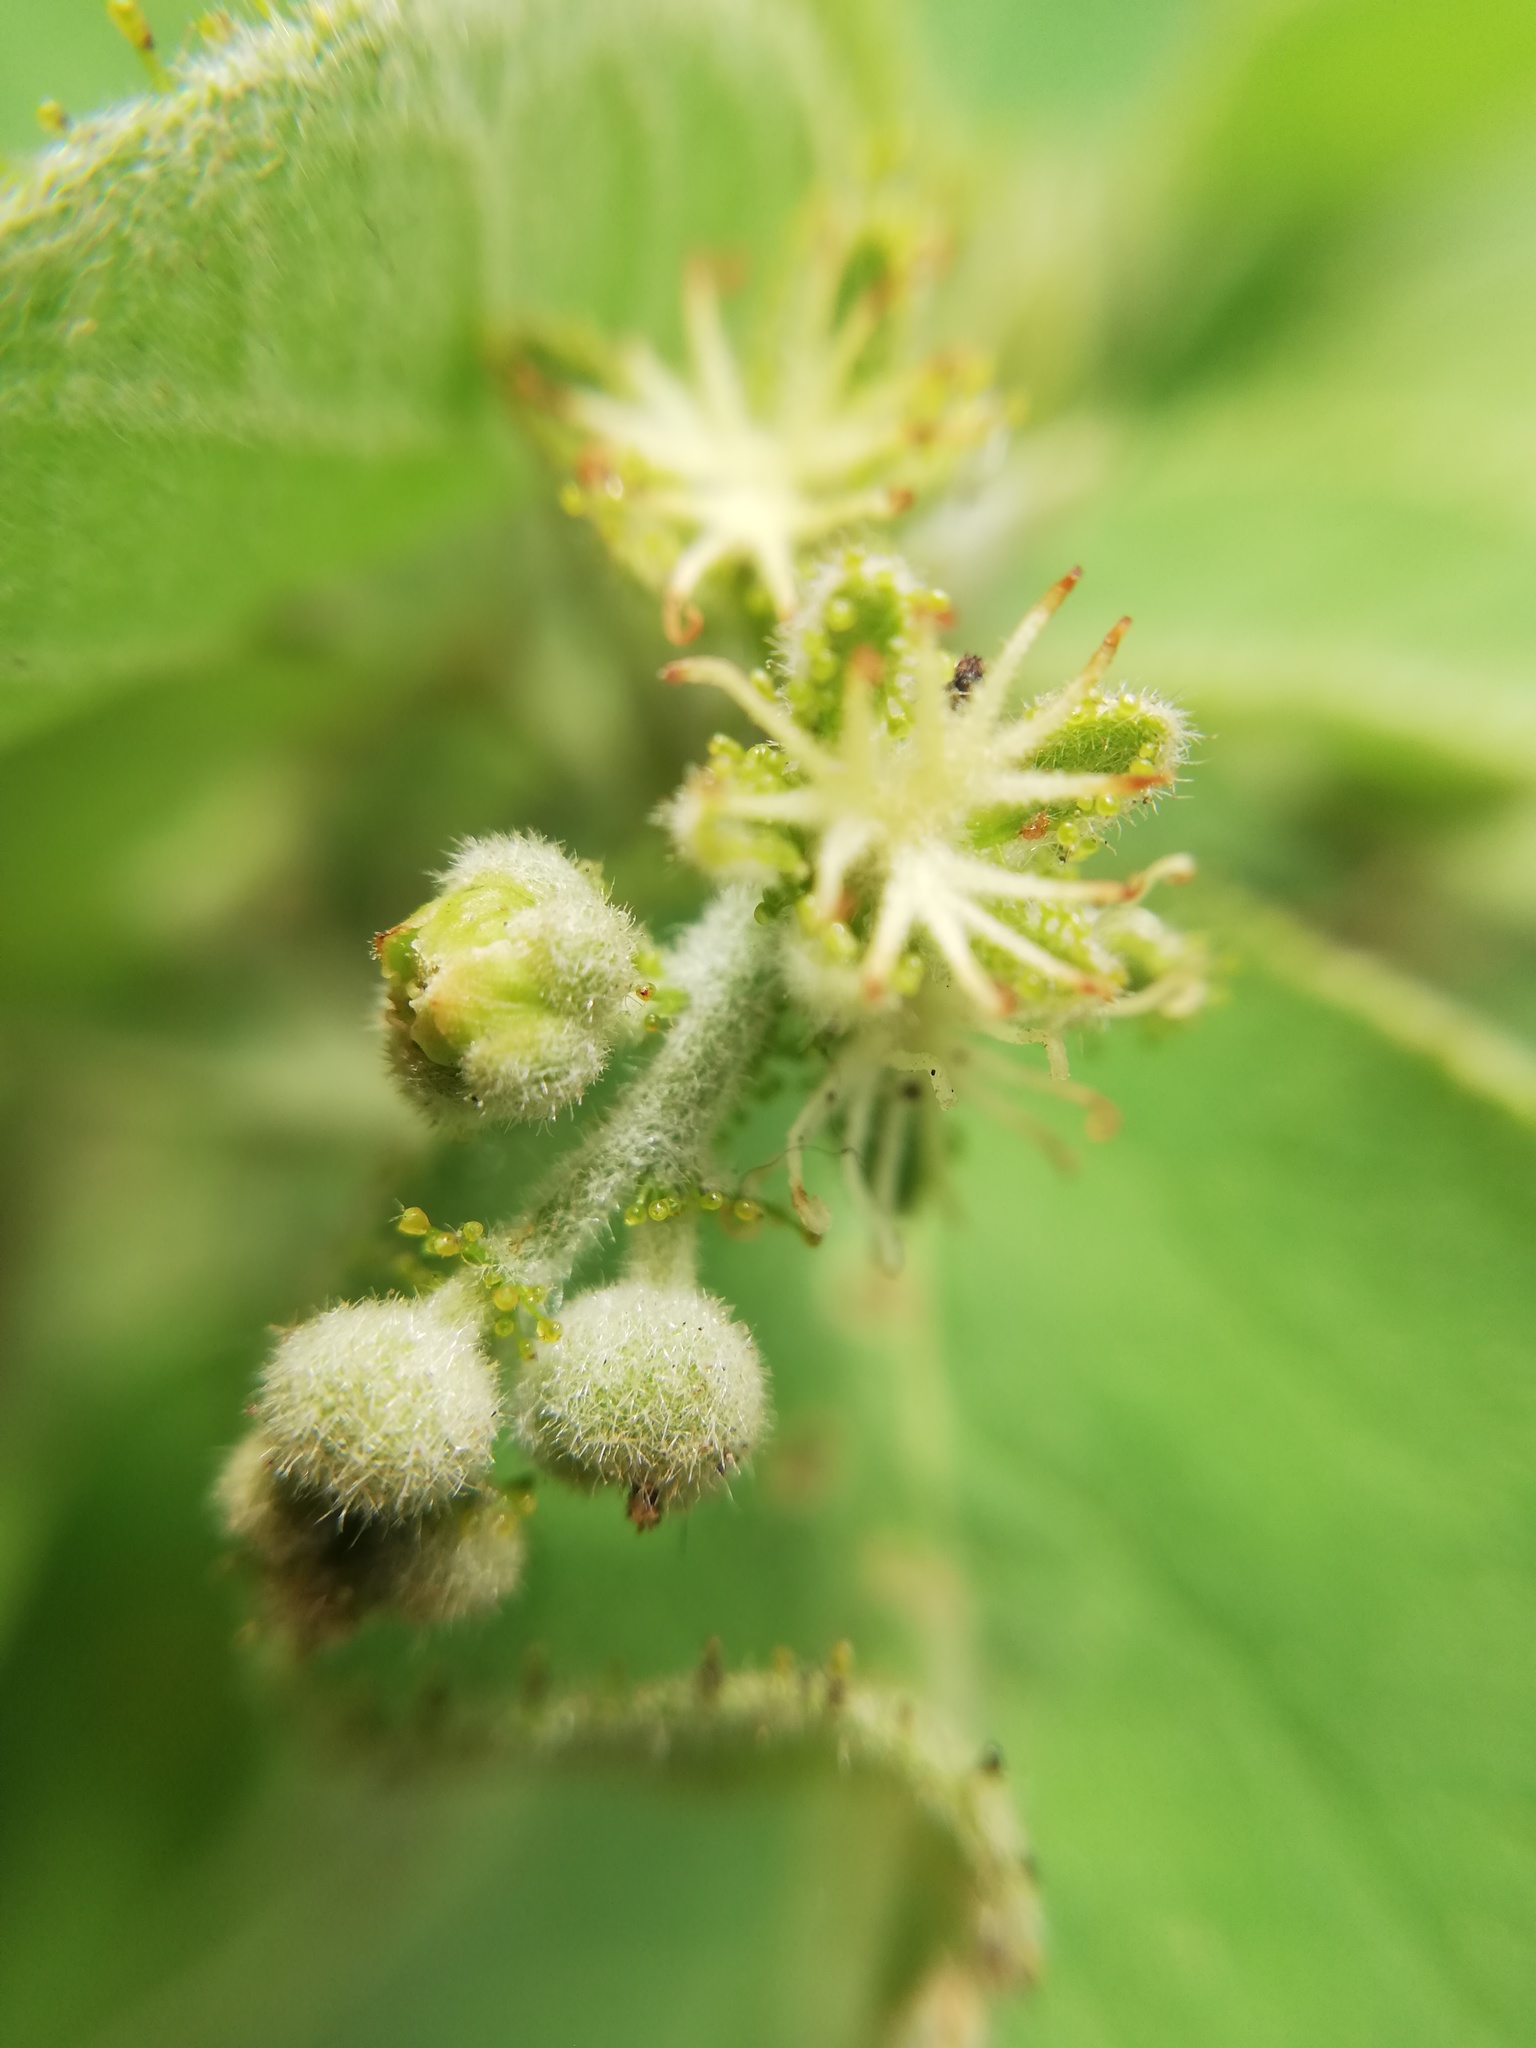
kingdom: Plantae
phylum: Tracheophyta
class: Magnoliopsida
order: Malpighiales
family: Euphorbiaceae
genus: Croton
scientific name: Croton ciliatoglandulifer
